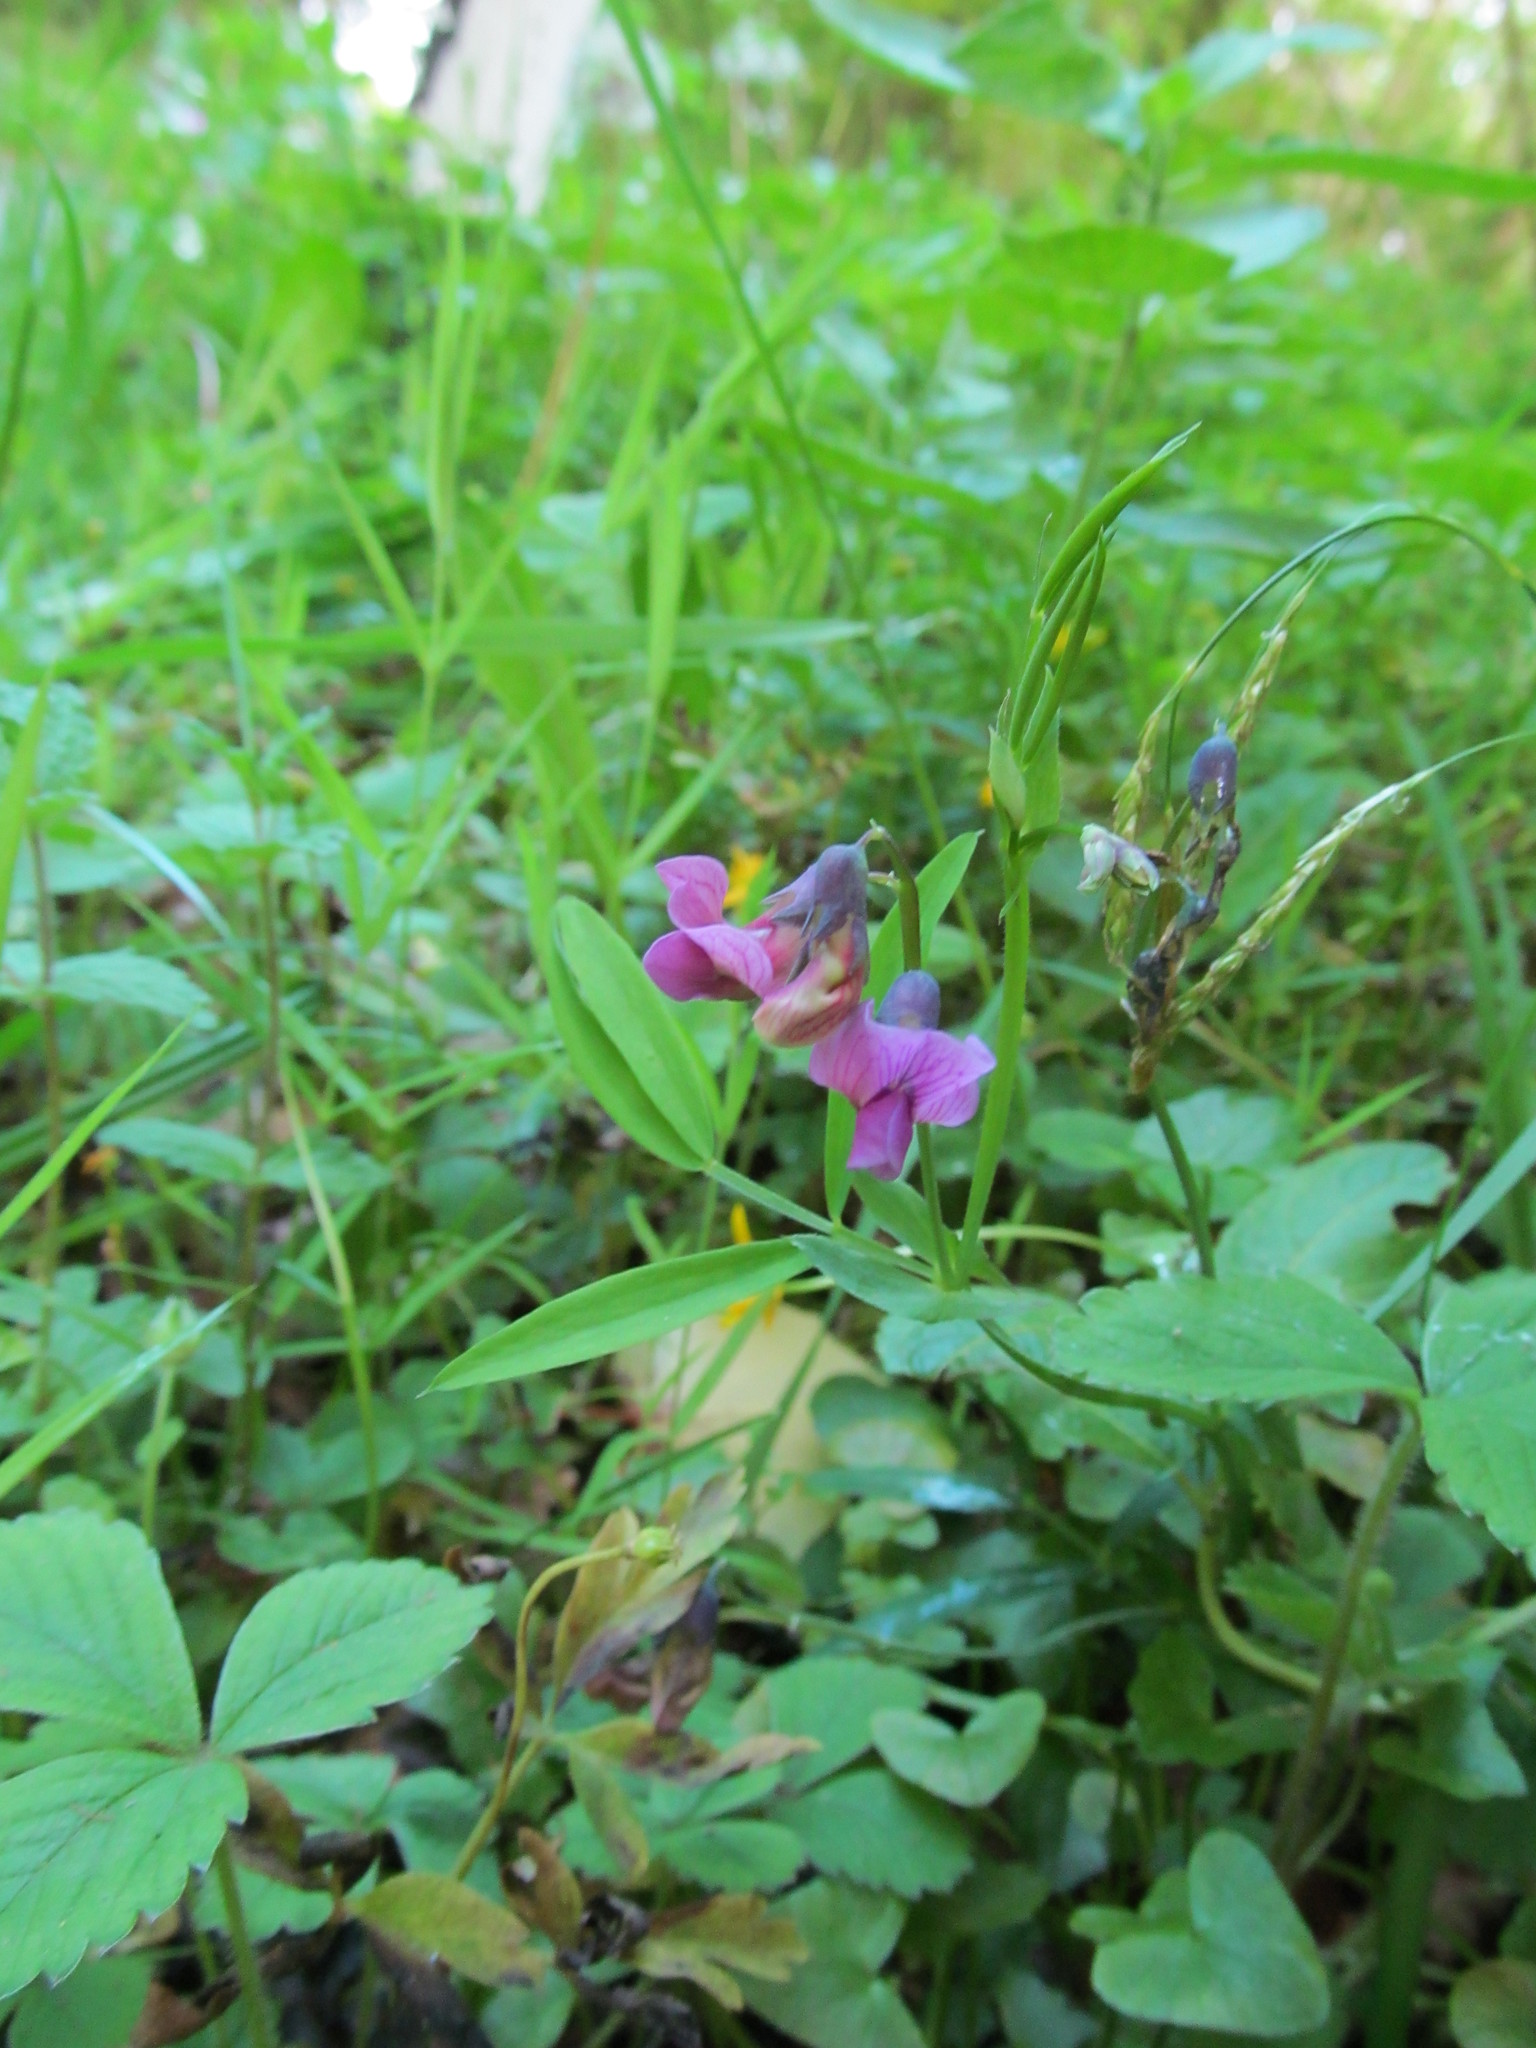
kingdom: Plantae
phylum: Tracheophyta
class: Magnoliopsida
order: Fabales
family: Fabaceae
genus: Lathyrus
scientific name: Lathyrus linifolius
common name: Bitter-vetch
